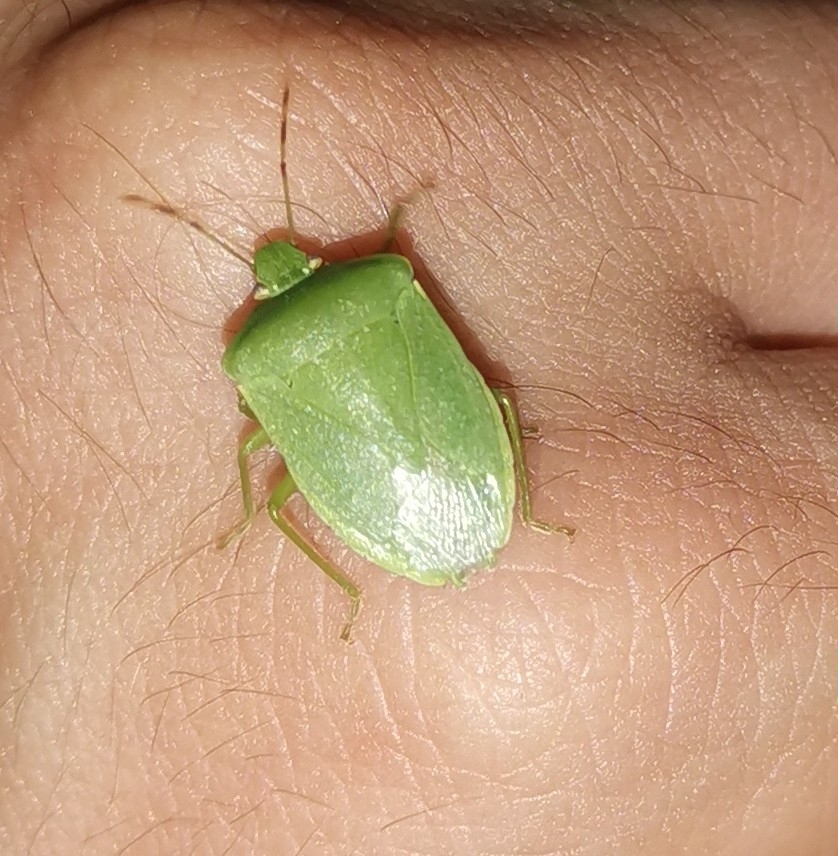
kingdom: Animalia
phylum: Arthropoda
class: Insecta
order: Hemiptera
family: Pentatomidae
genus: Nezara
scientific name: Nezara viridula
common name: Southern green stink bug
